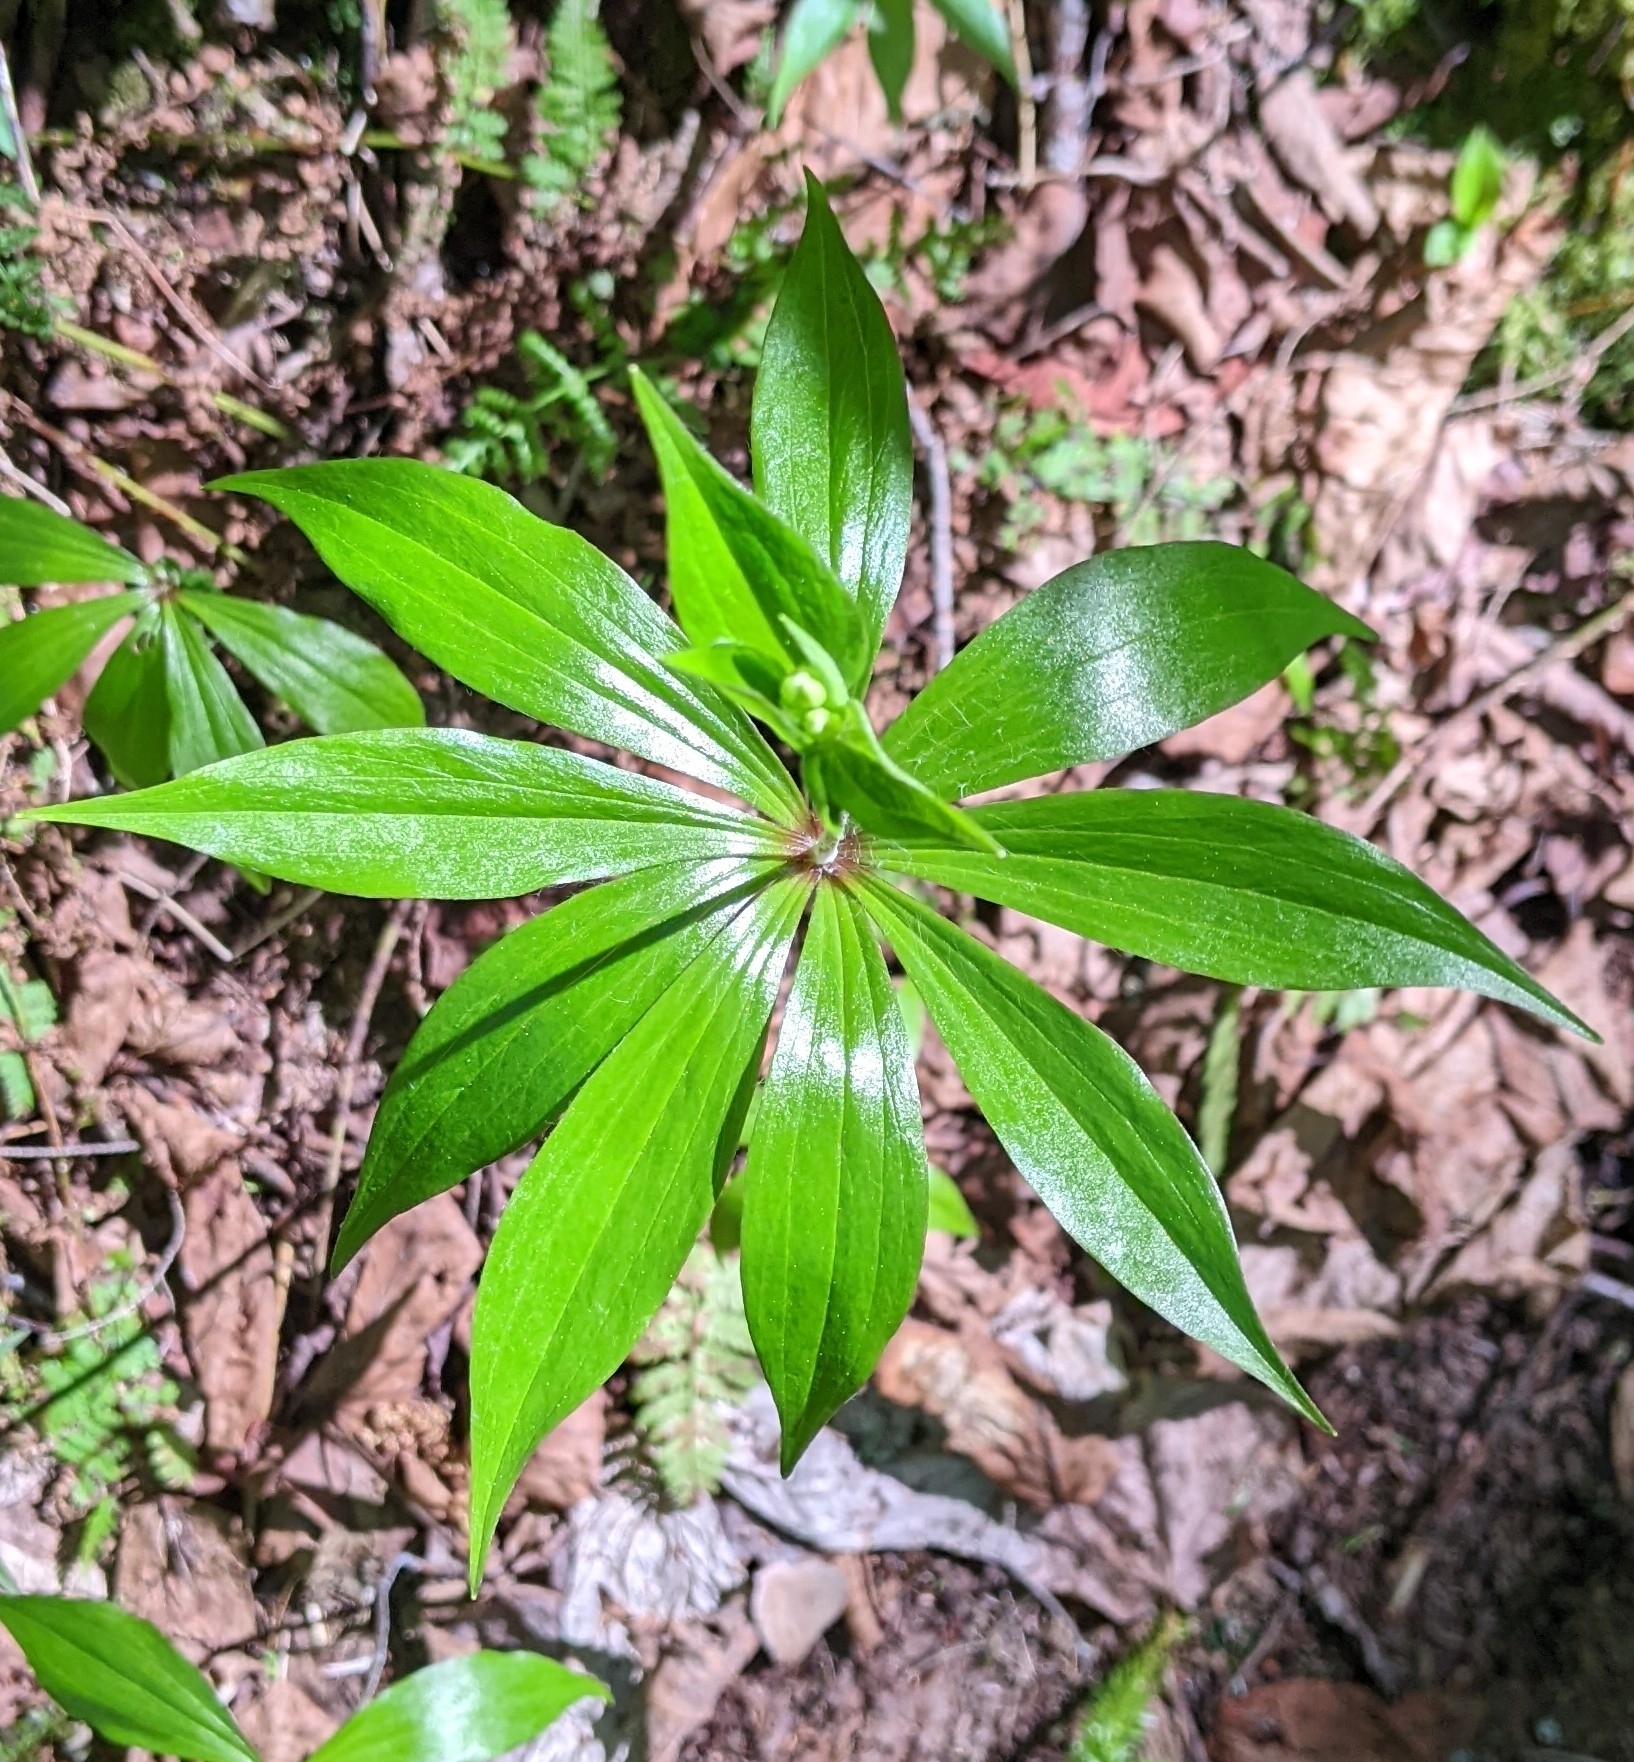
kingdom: Plantae
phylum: Tracheophyta
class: Liliopsida
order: Liliales
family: Liliaceae
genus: Medeola
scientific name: Medeola virginiana
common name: Indian cucumber-root
